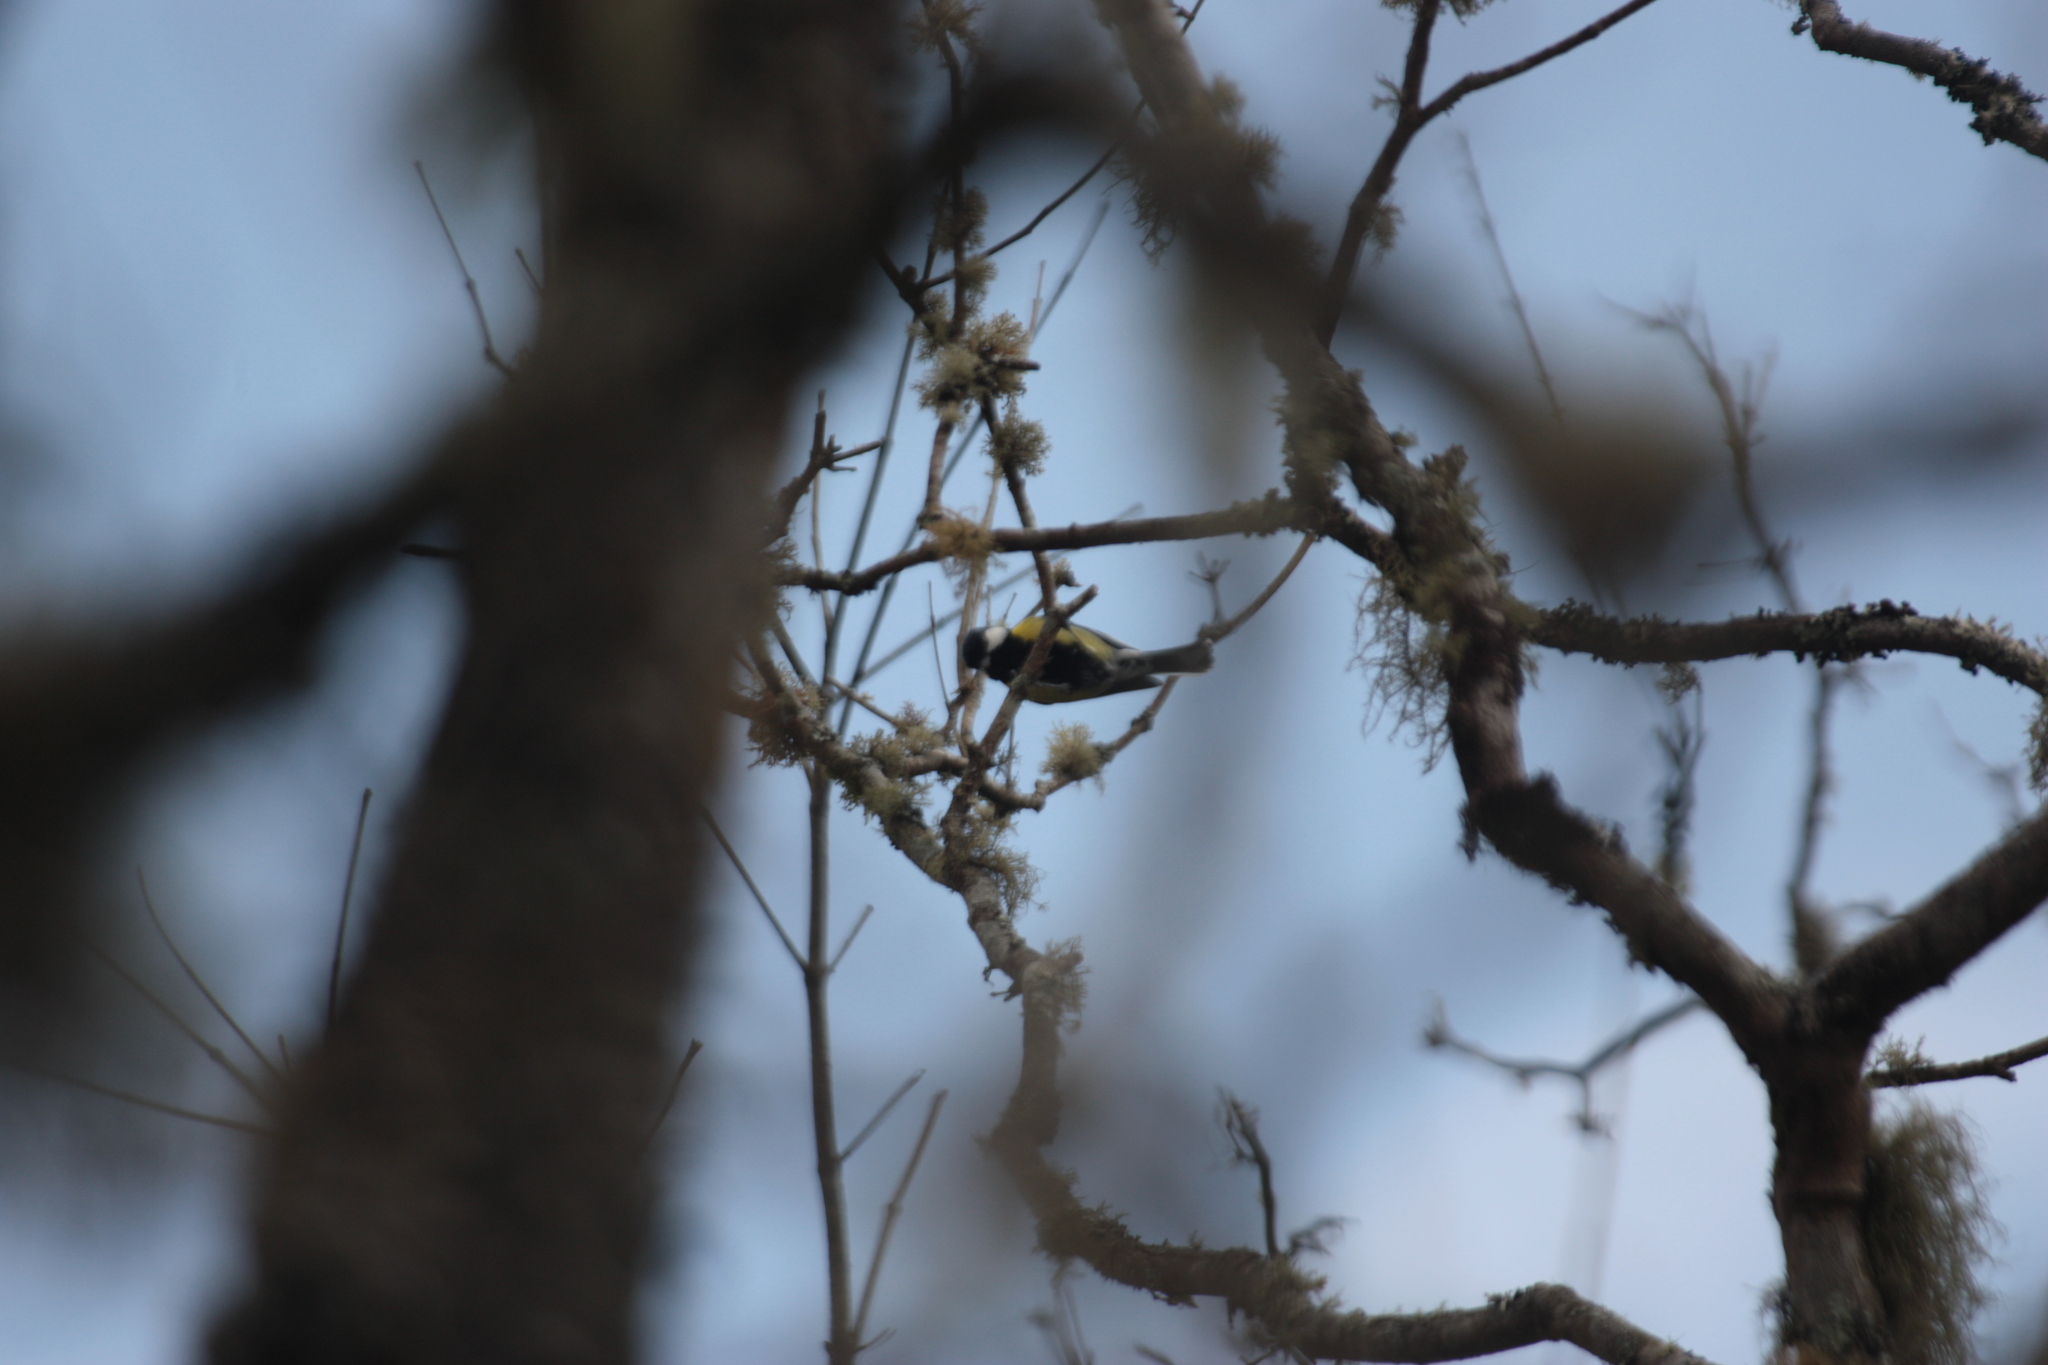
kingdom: Animalia
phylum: Chordata
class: Aves
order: Passeriformes
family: Paridae
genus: Parus
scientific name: Parus monticolus
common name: Green-backed tit
